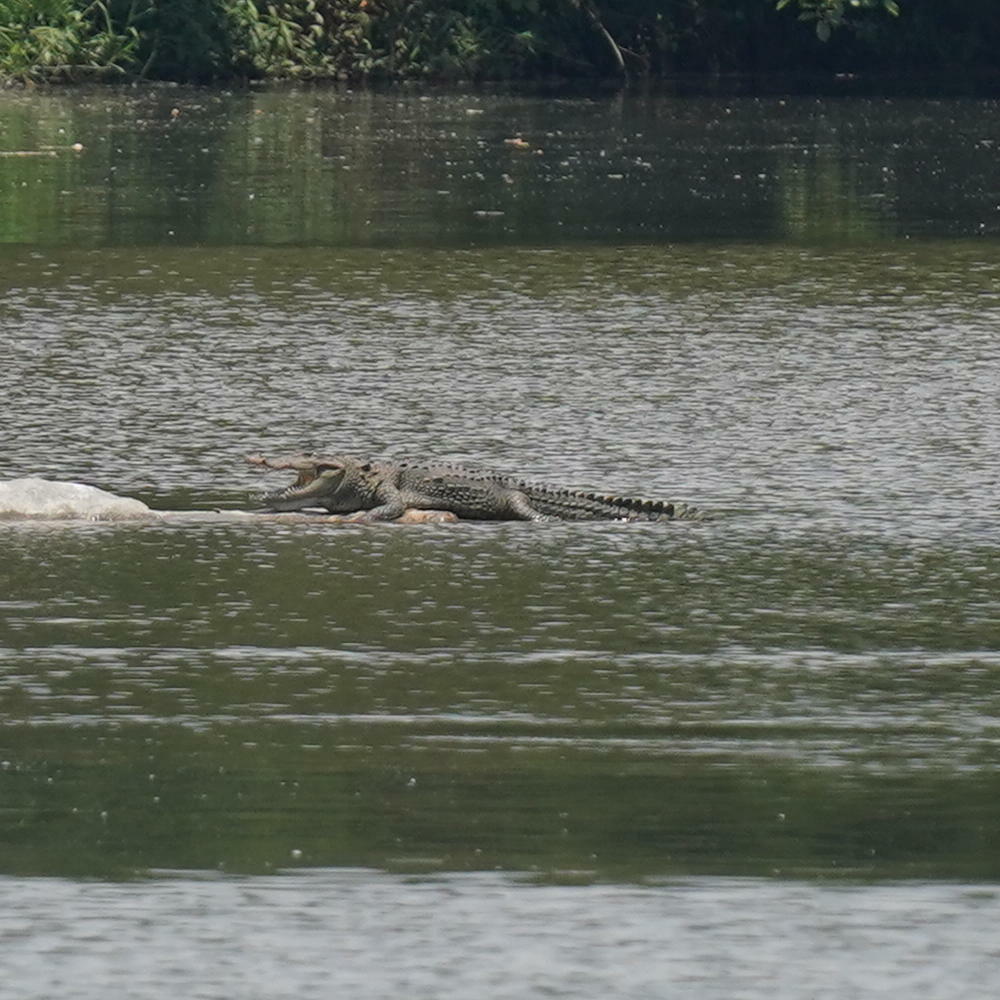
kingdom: Animalia
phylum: Chordata
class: Crocodylia
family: Crocodylidae
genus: Crocodylus
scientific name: Crocodylus palustris
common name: Mugger crocodile
